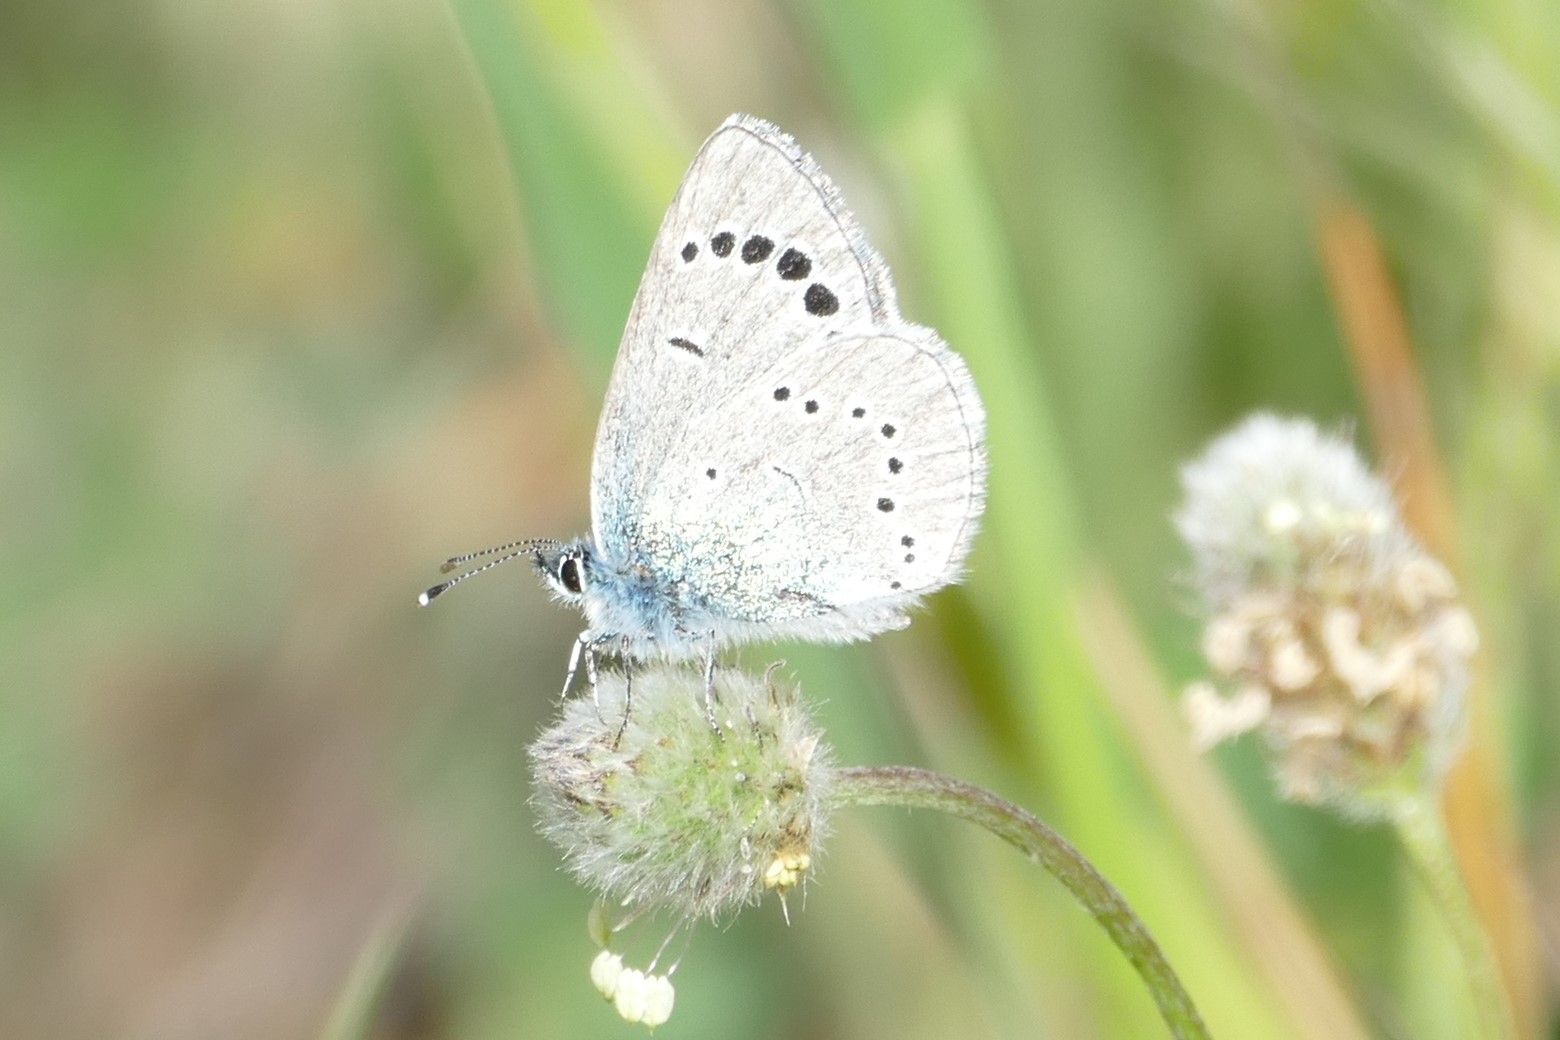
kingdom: Animalia
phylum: Arthropoda
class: Insecta
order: Lepidoptera
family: Lycaenidae
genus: Glaucopsyche
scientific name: Glaucopsyche alexis
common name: Green-underside blue
